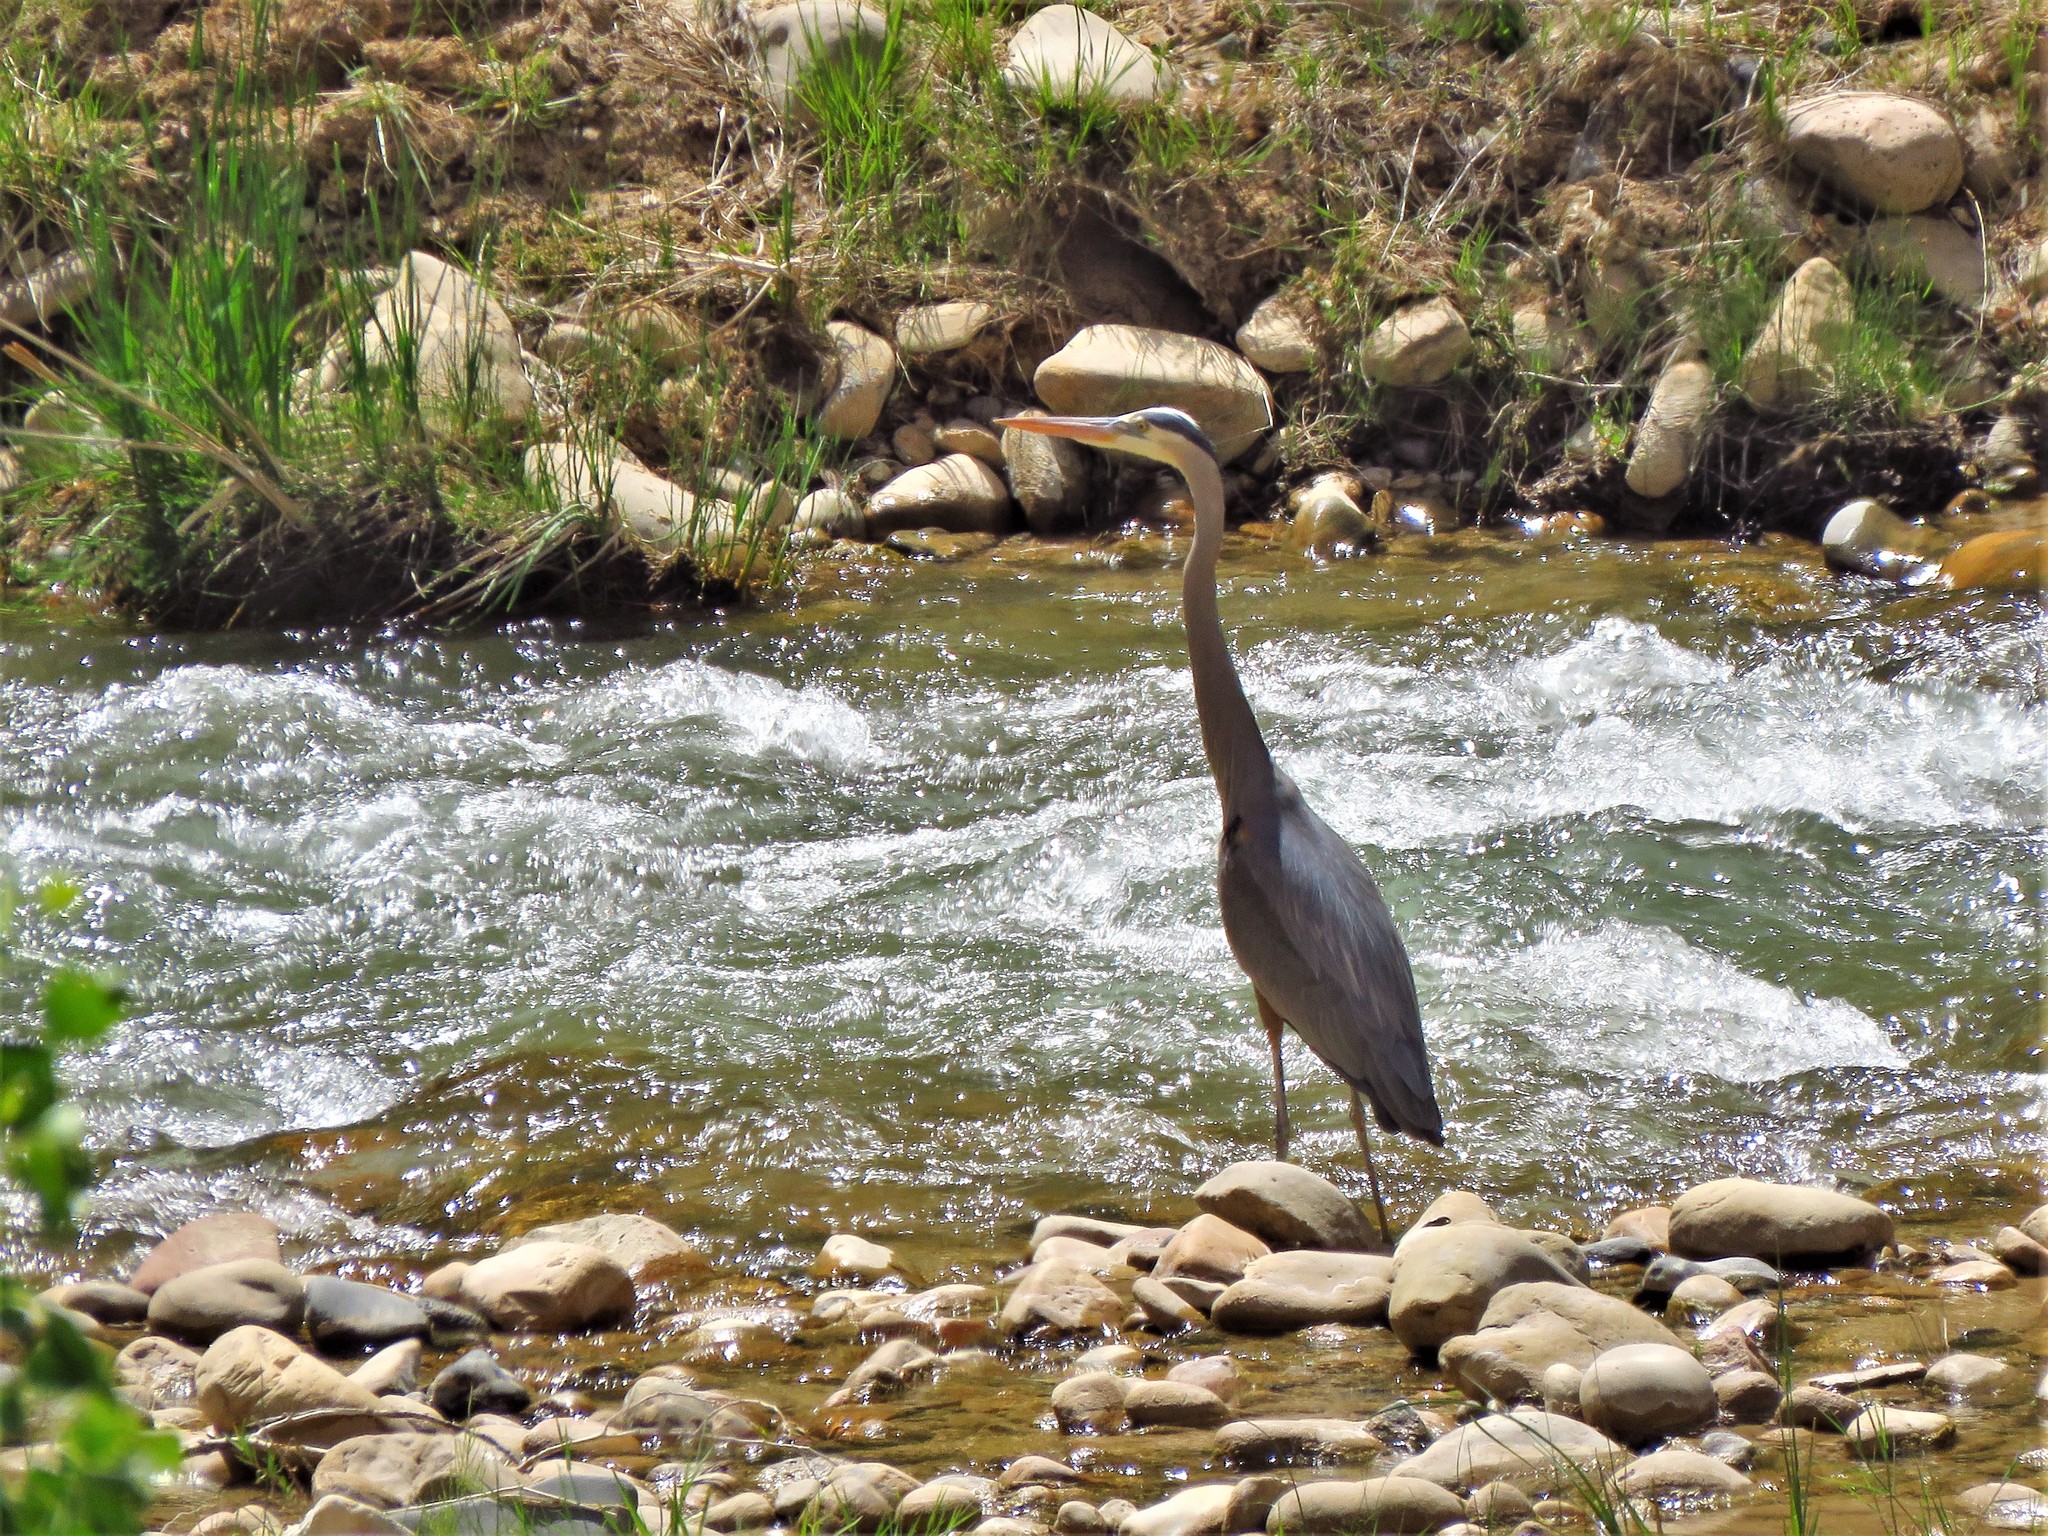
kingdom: Animalia
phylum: Chordata
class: Aves
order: Pelecaniformes
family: Ardeidae
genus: Ardea
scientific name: Ardea herodias
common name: Great blue heron
